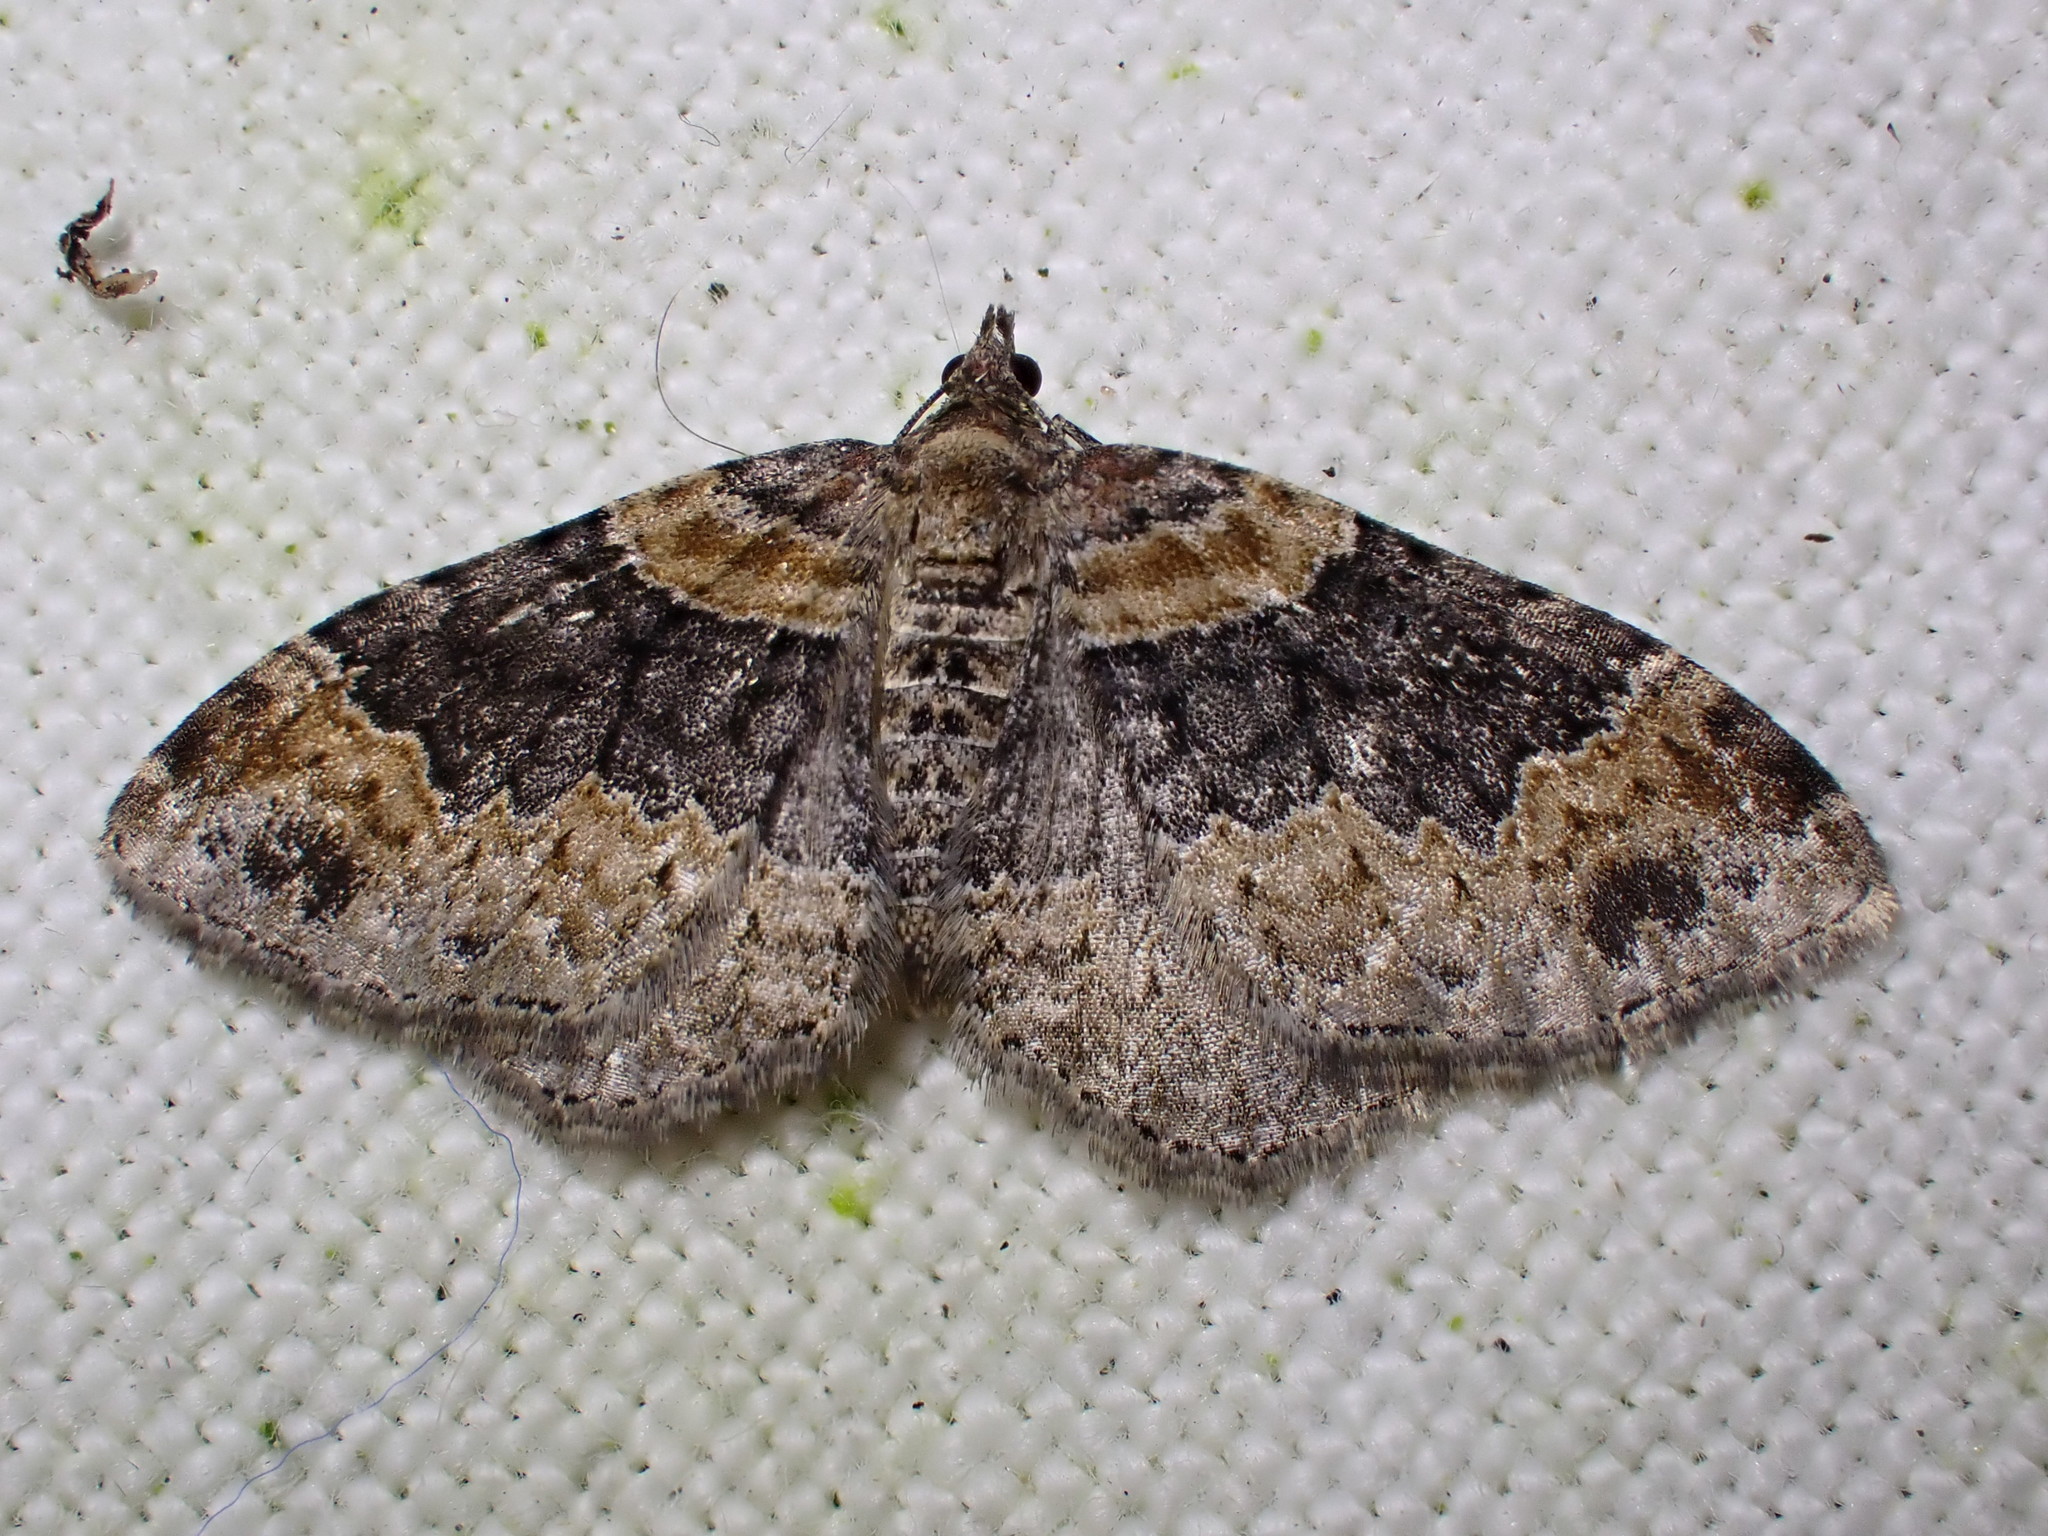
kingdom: Animalia
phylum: Arthropoda
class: Insecta
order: Lepidoptera
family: Geometridae
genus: Xanthorhoe
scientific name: Xanthorhoe ferrugata
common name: Dark-barred twin-spot carpet
